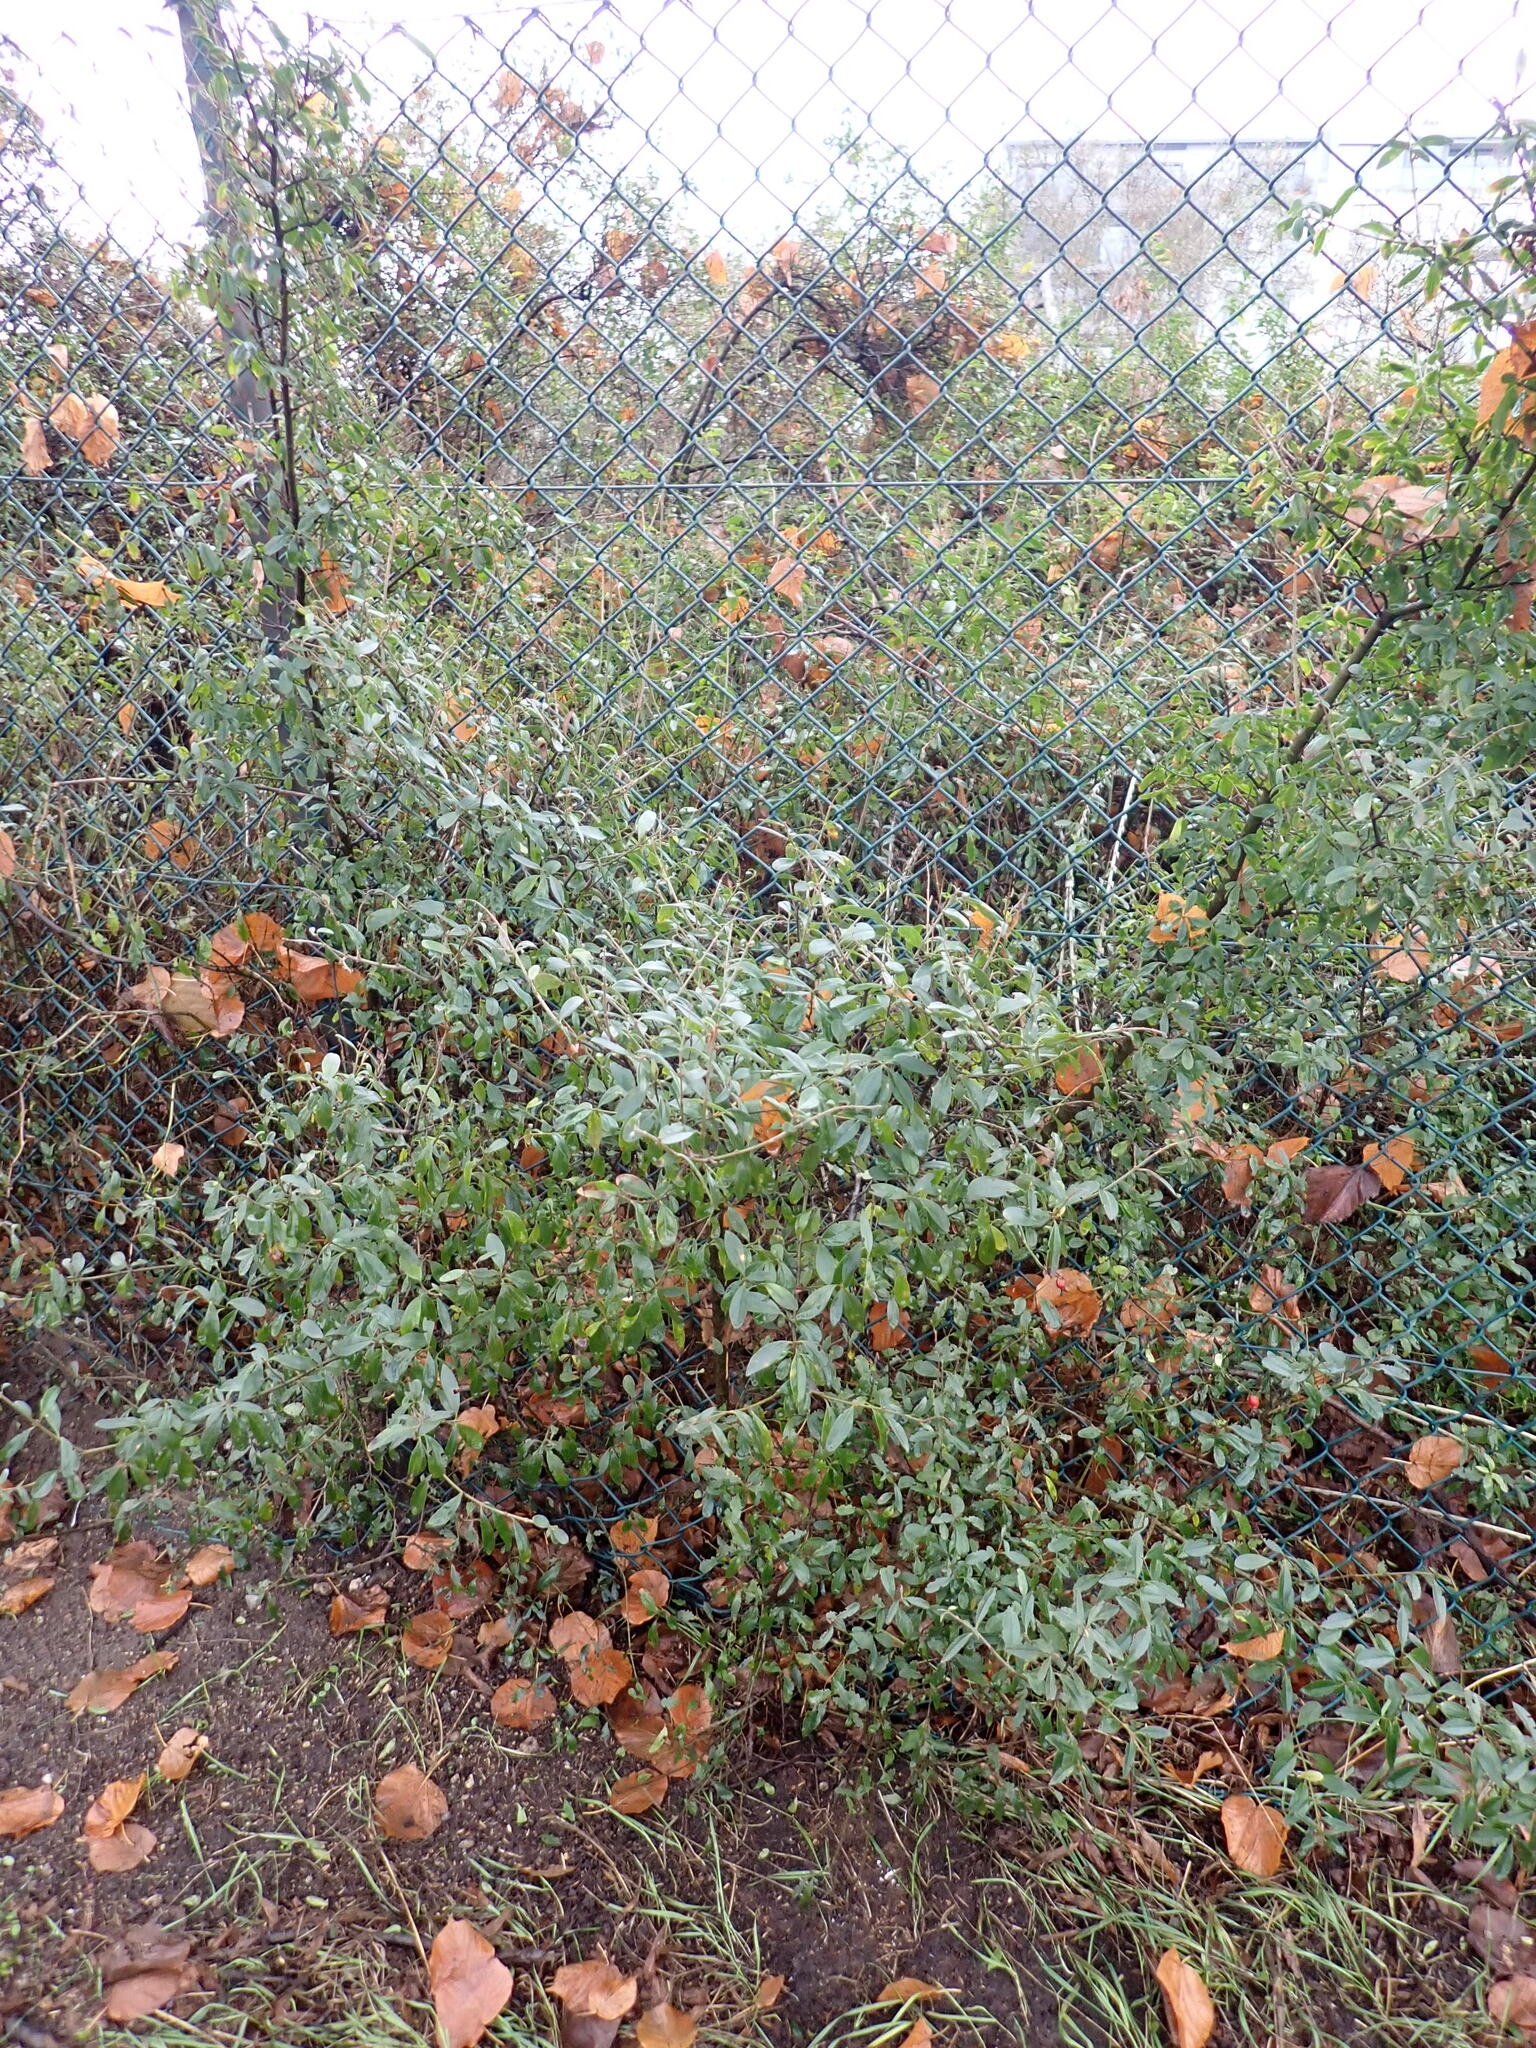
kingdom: Plantae
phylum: Tracheophyta
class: Magnoliopsida
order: Lamiales
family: Oleaceae
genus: Ligustrum
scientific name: Ligustrum vulgare
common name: Wild privet
